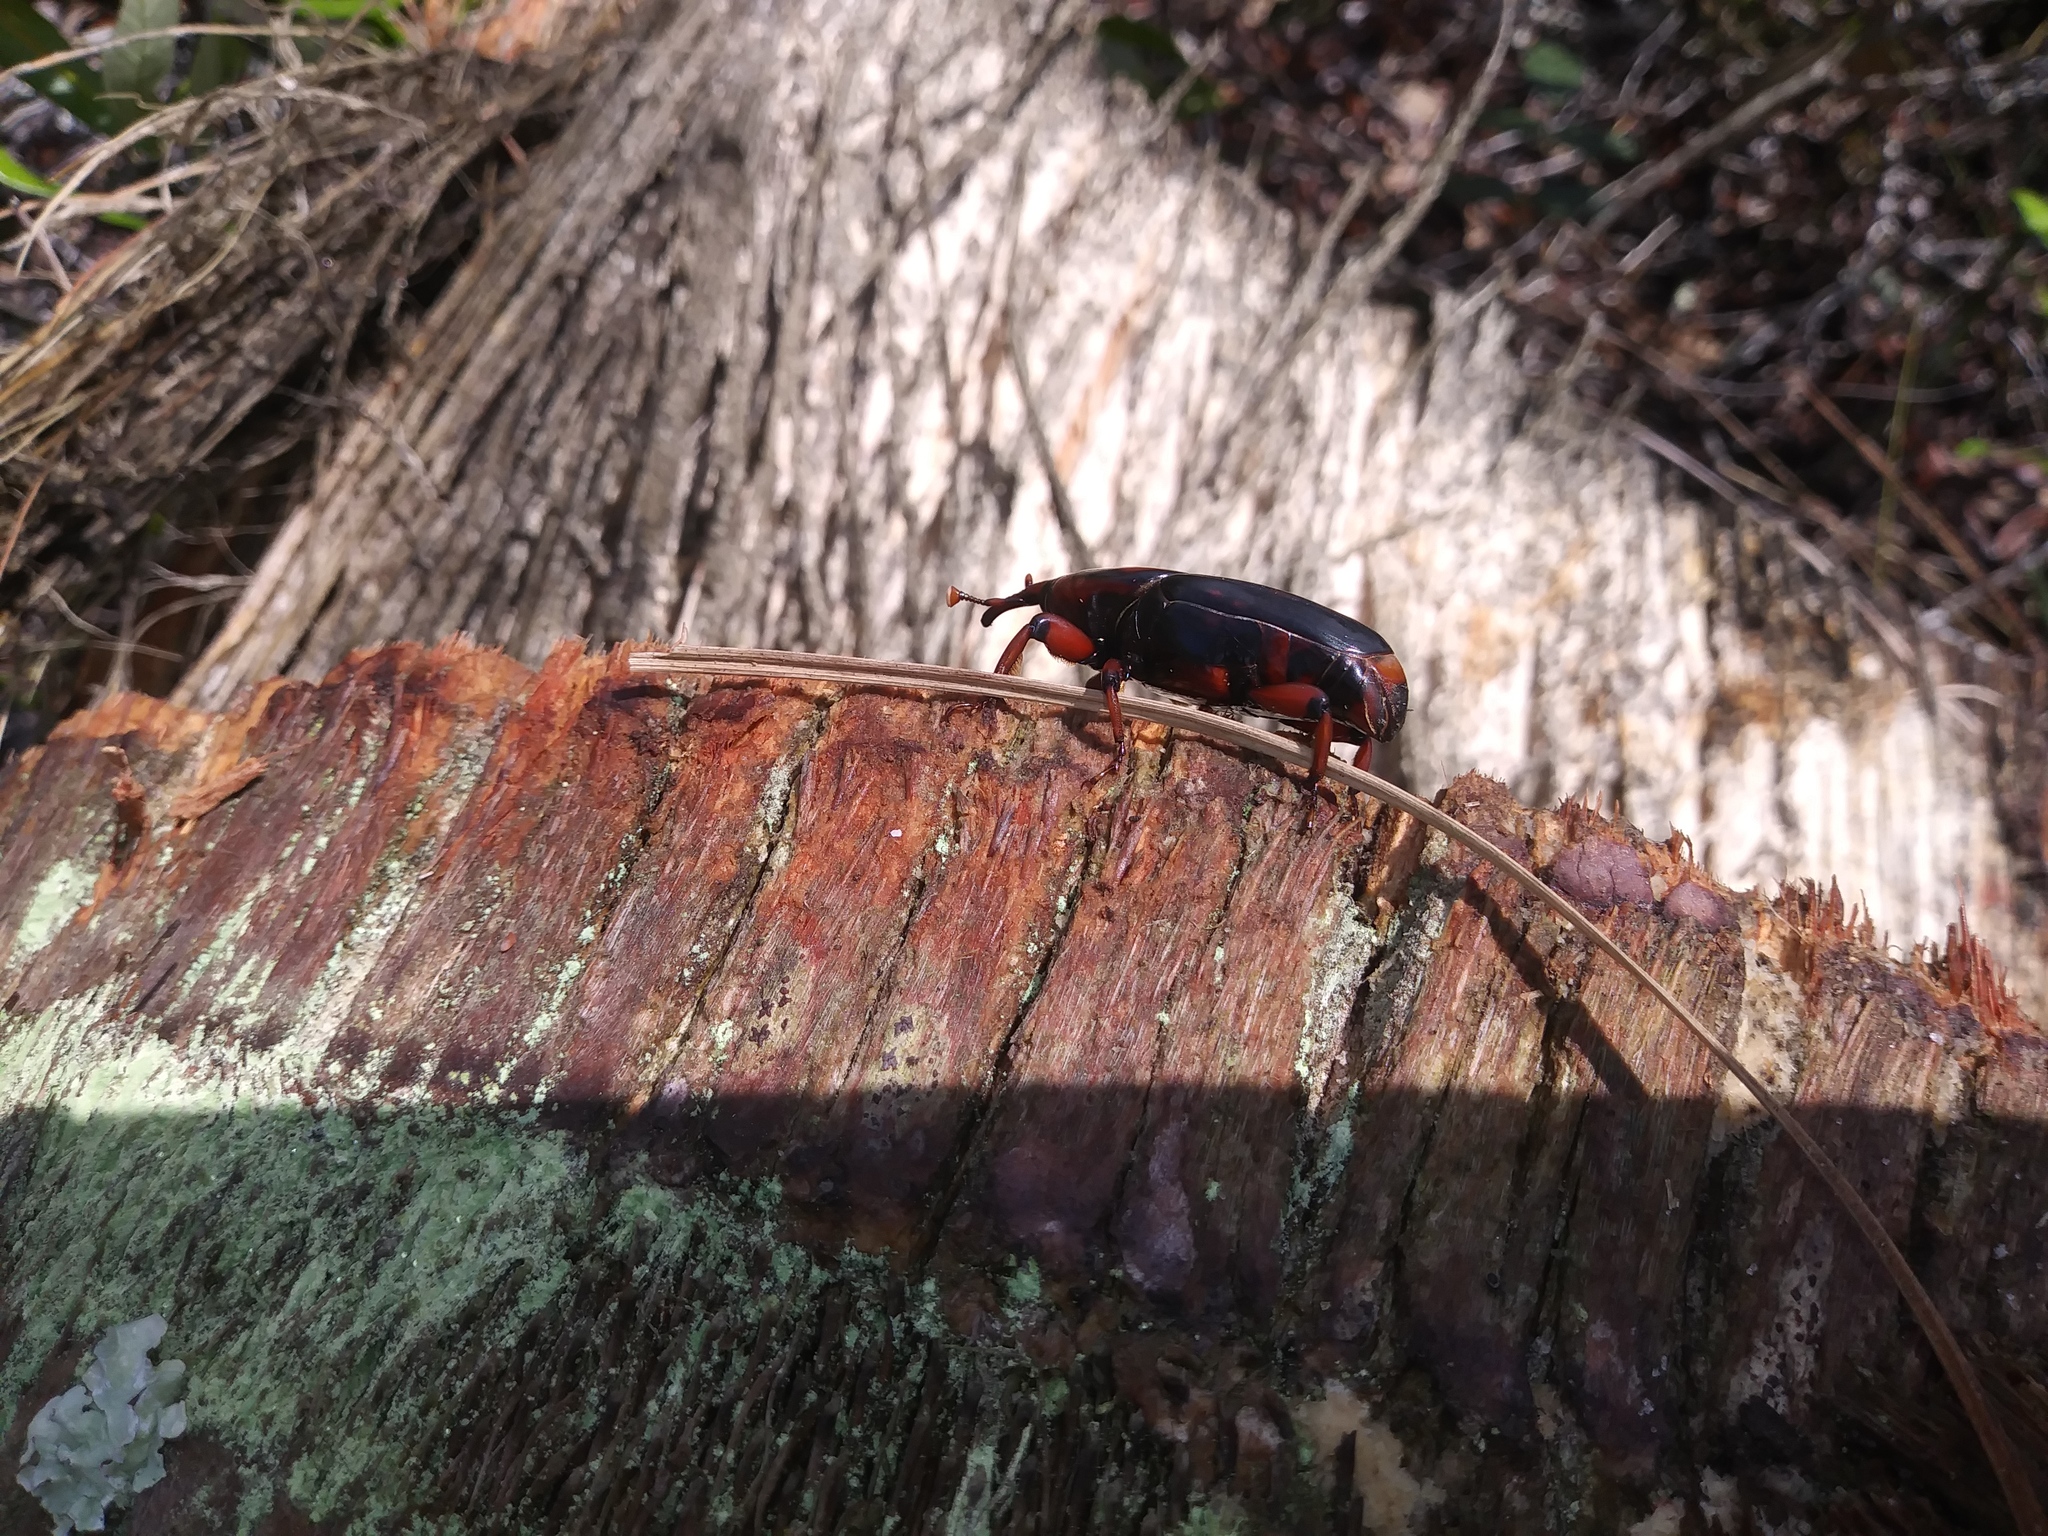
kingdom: Animalia
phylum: Arthropoda
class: Insecta
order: Coleoptera
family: Dryophthoridae
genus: Rhynchophorus
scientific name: Rhynchophorus cruentatus
